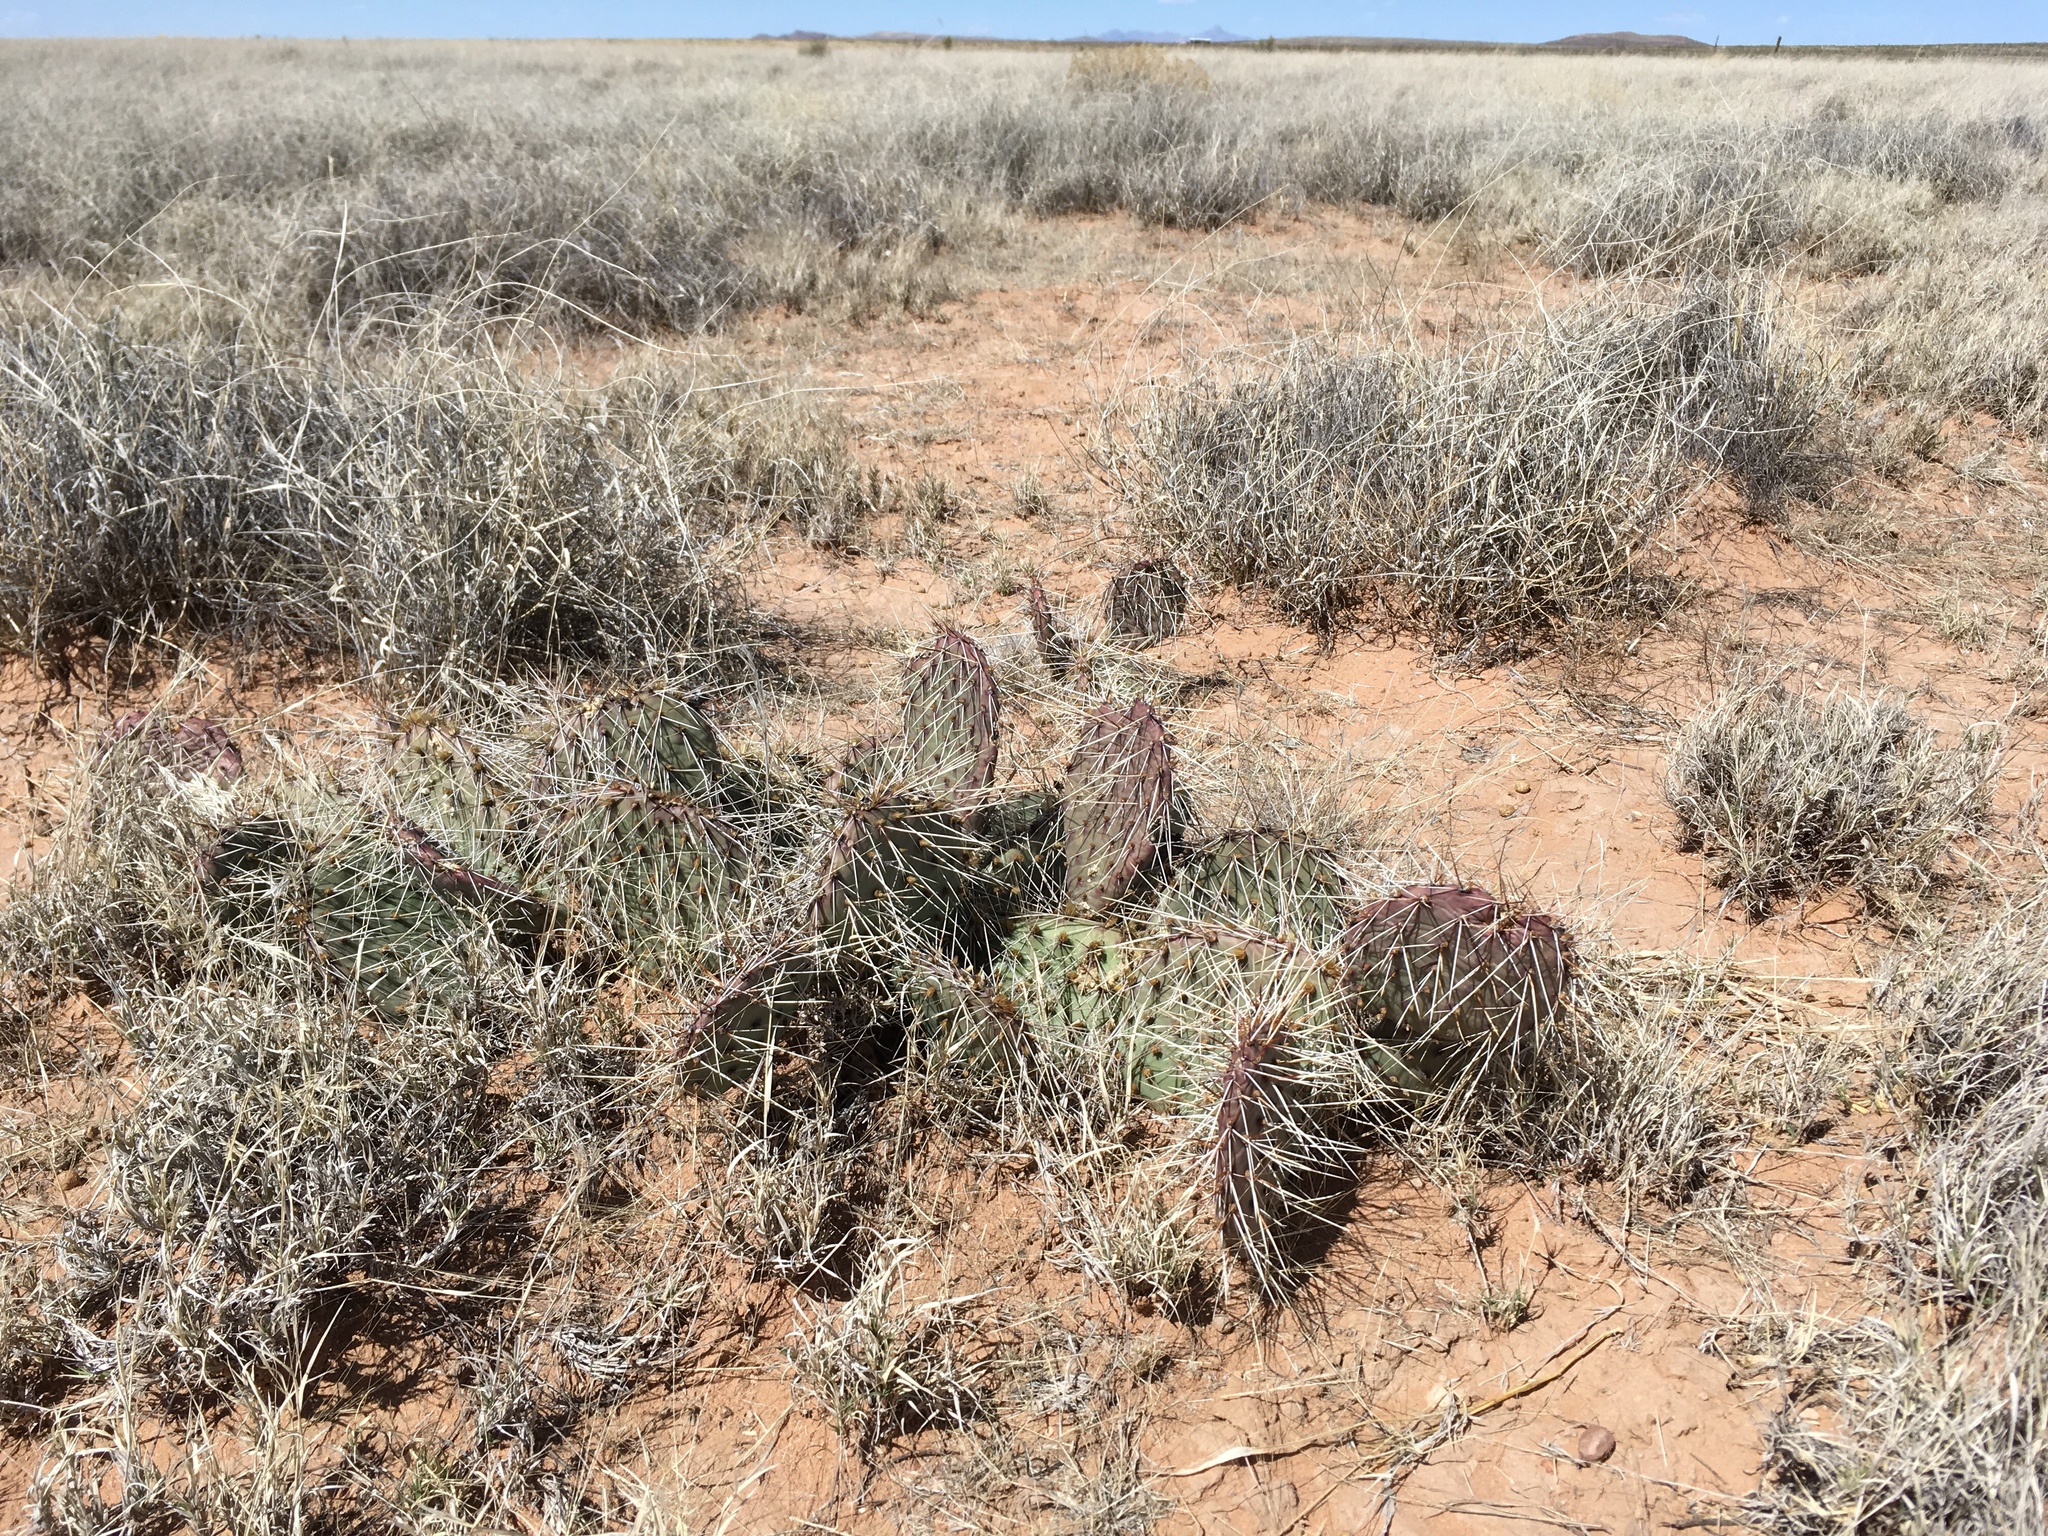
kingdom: Plantae
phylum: Tracheophyta
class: Magnoliopsida
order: Caryophyllales
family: Cactaceae
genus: Opuntia
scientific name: Opuntia macrorhiza
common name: Grassland pricklypear
